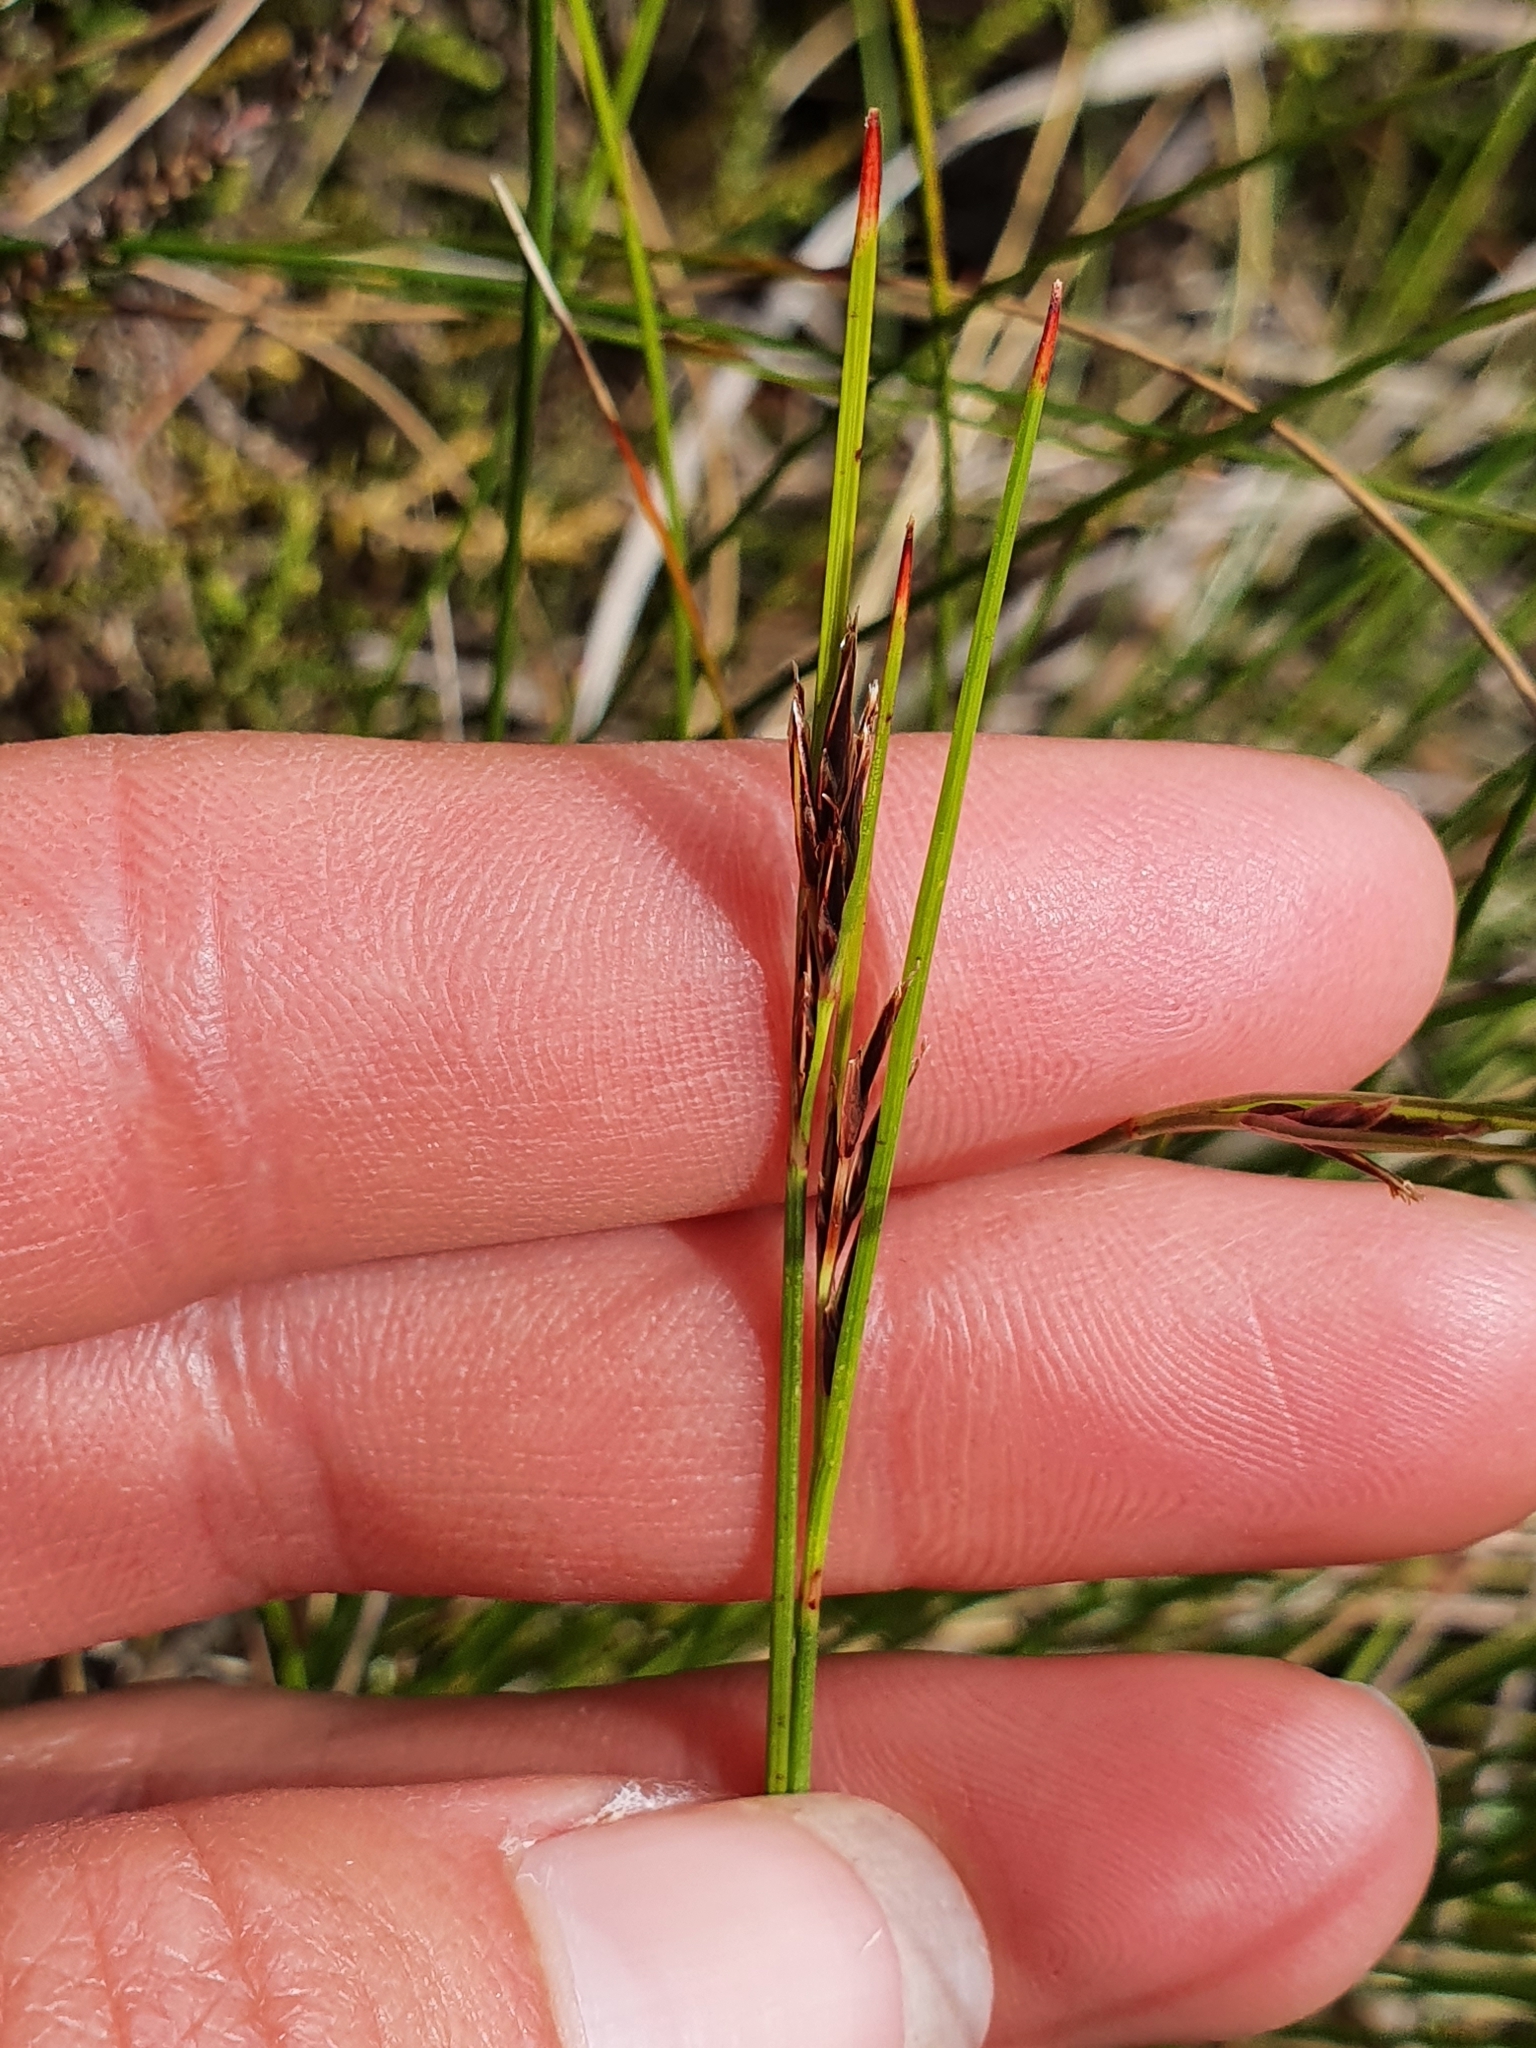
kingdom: Plantae
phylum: Tracheophyta
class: Liliopsida
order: Poales
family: Cyperaceae
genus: Schoenus
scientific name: Schoenus pauciflorus
